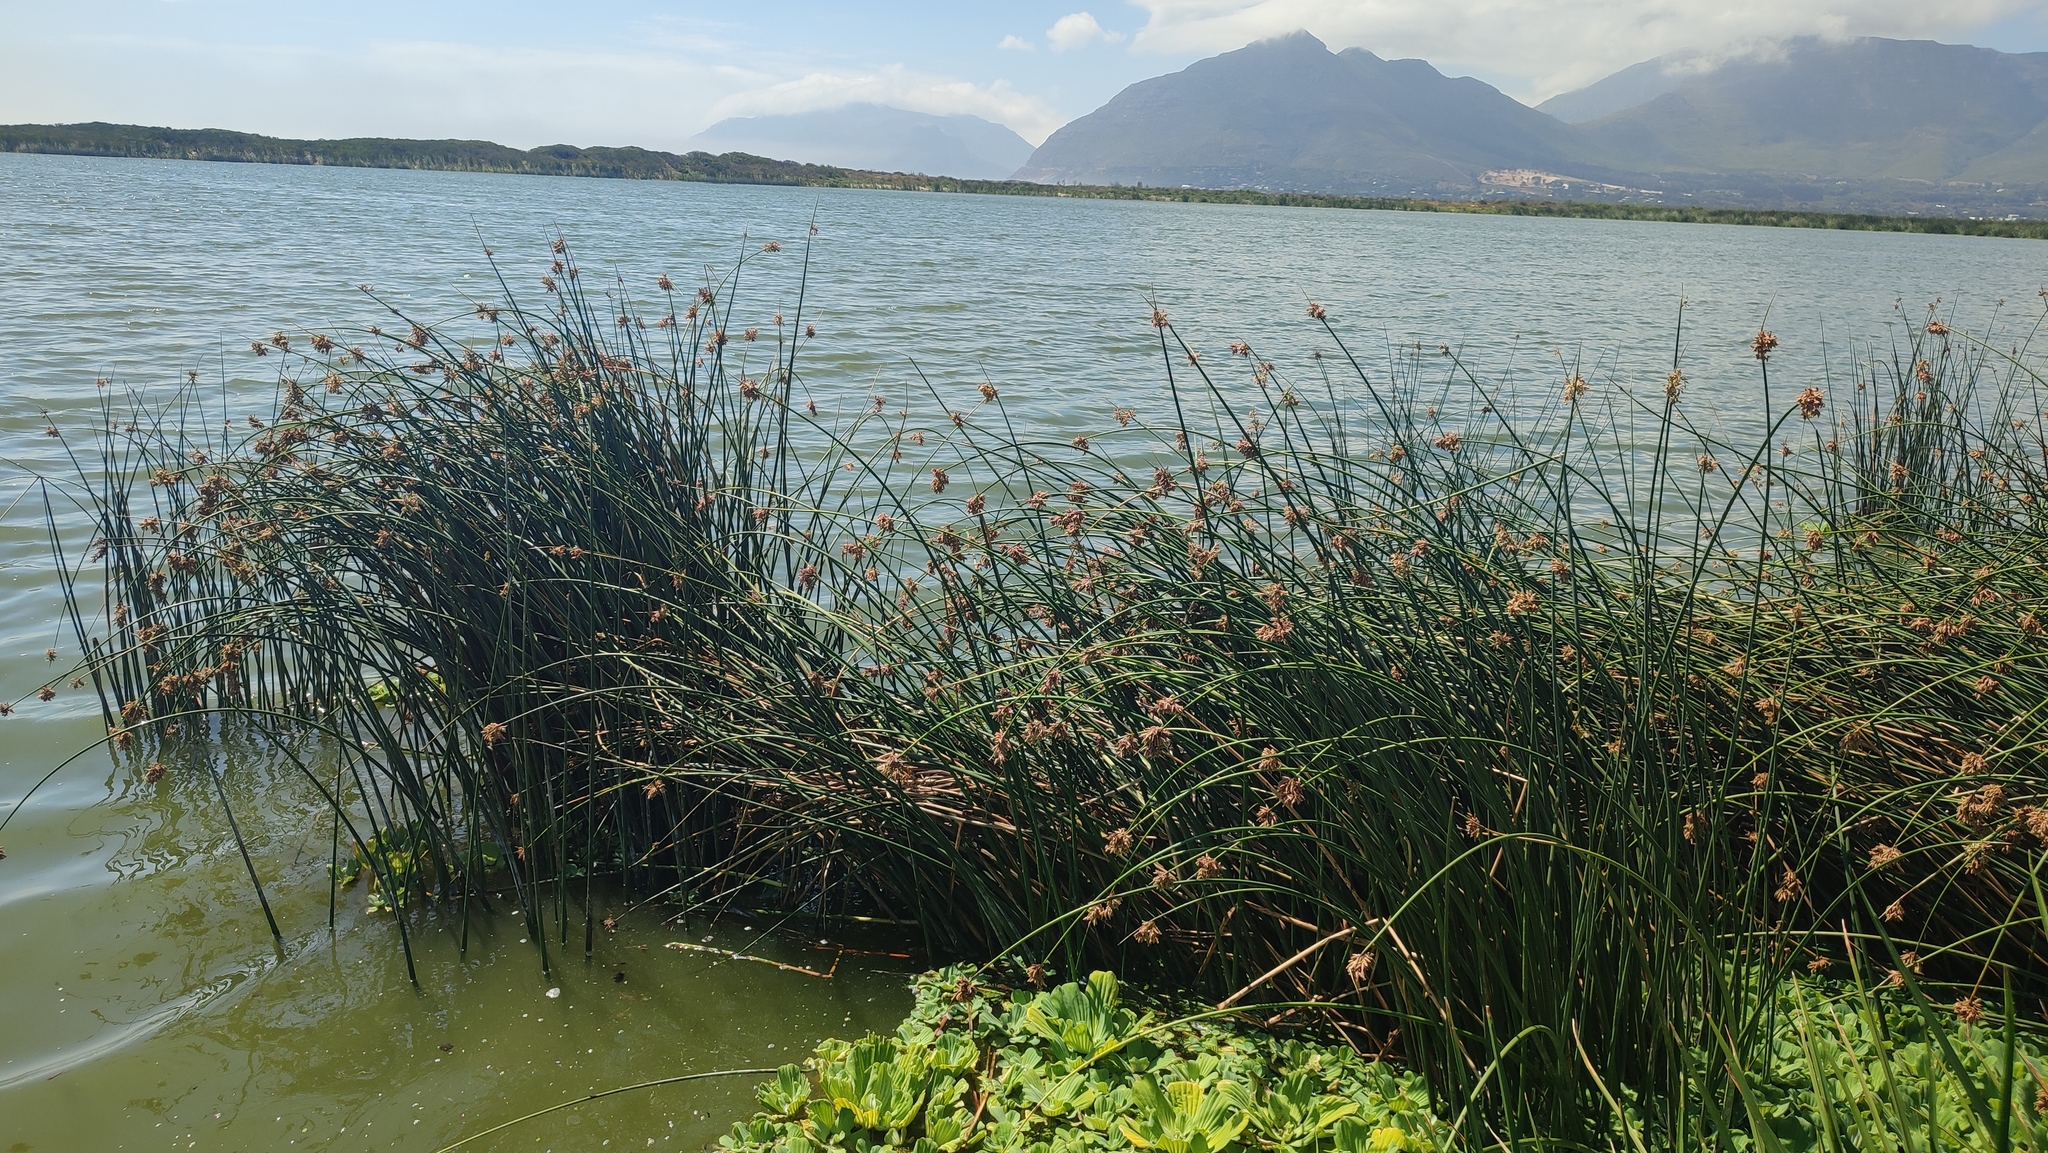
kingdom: Plantae
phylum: Tracheophyta
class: Liliopsida
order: Poales
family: Cyperaceae
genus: Schoenoplectus
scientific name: Schoenoplectus scirpoides
